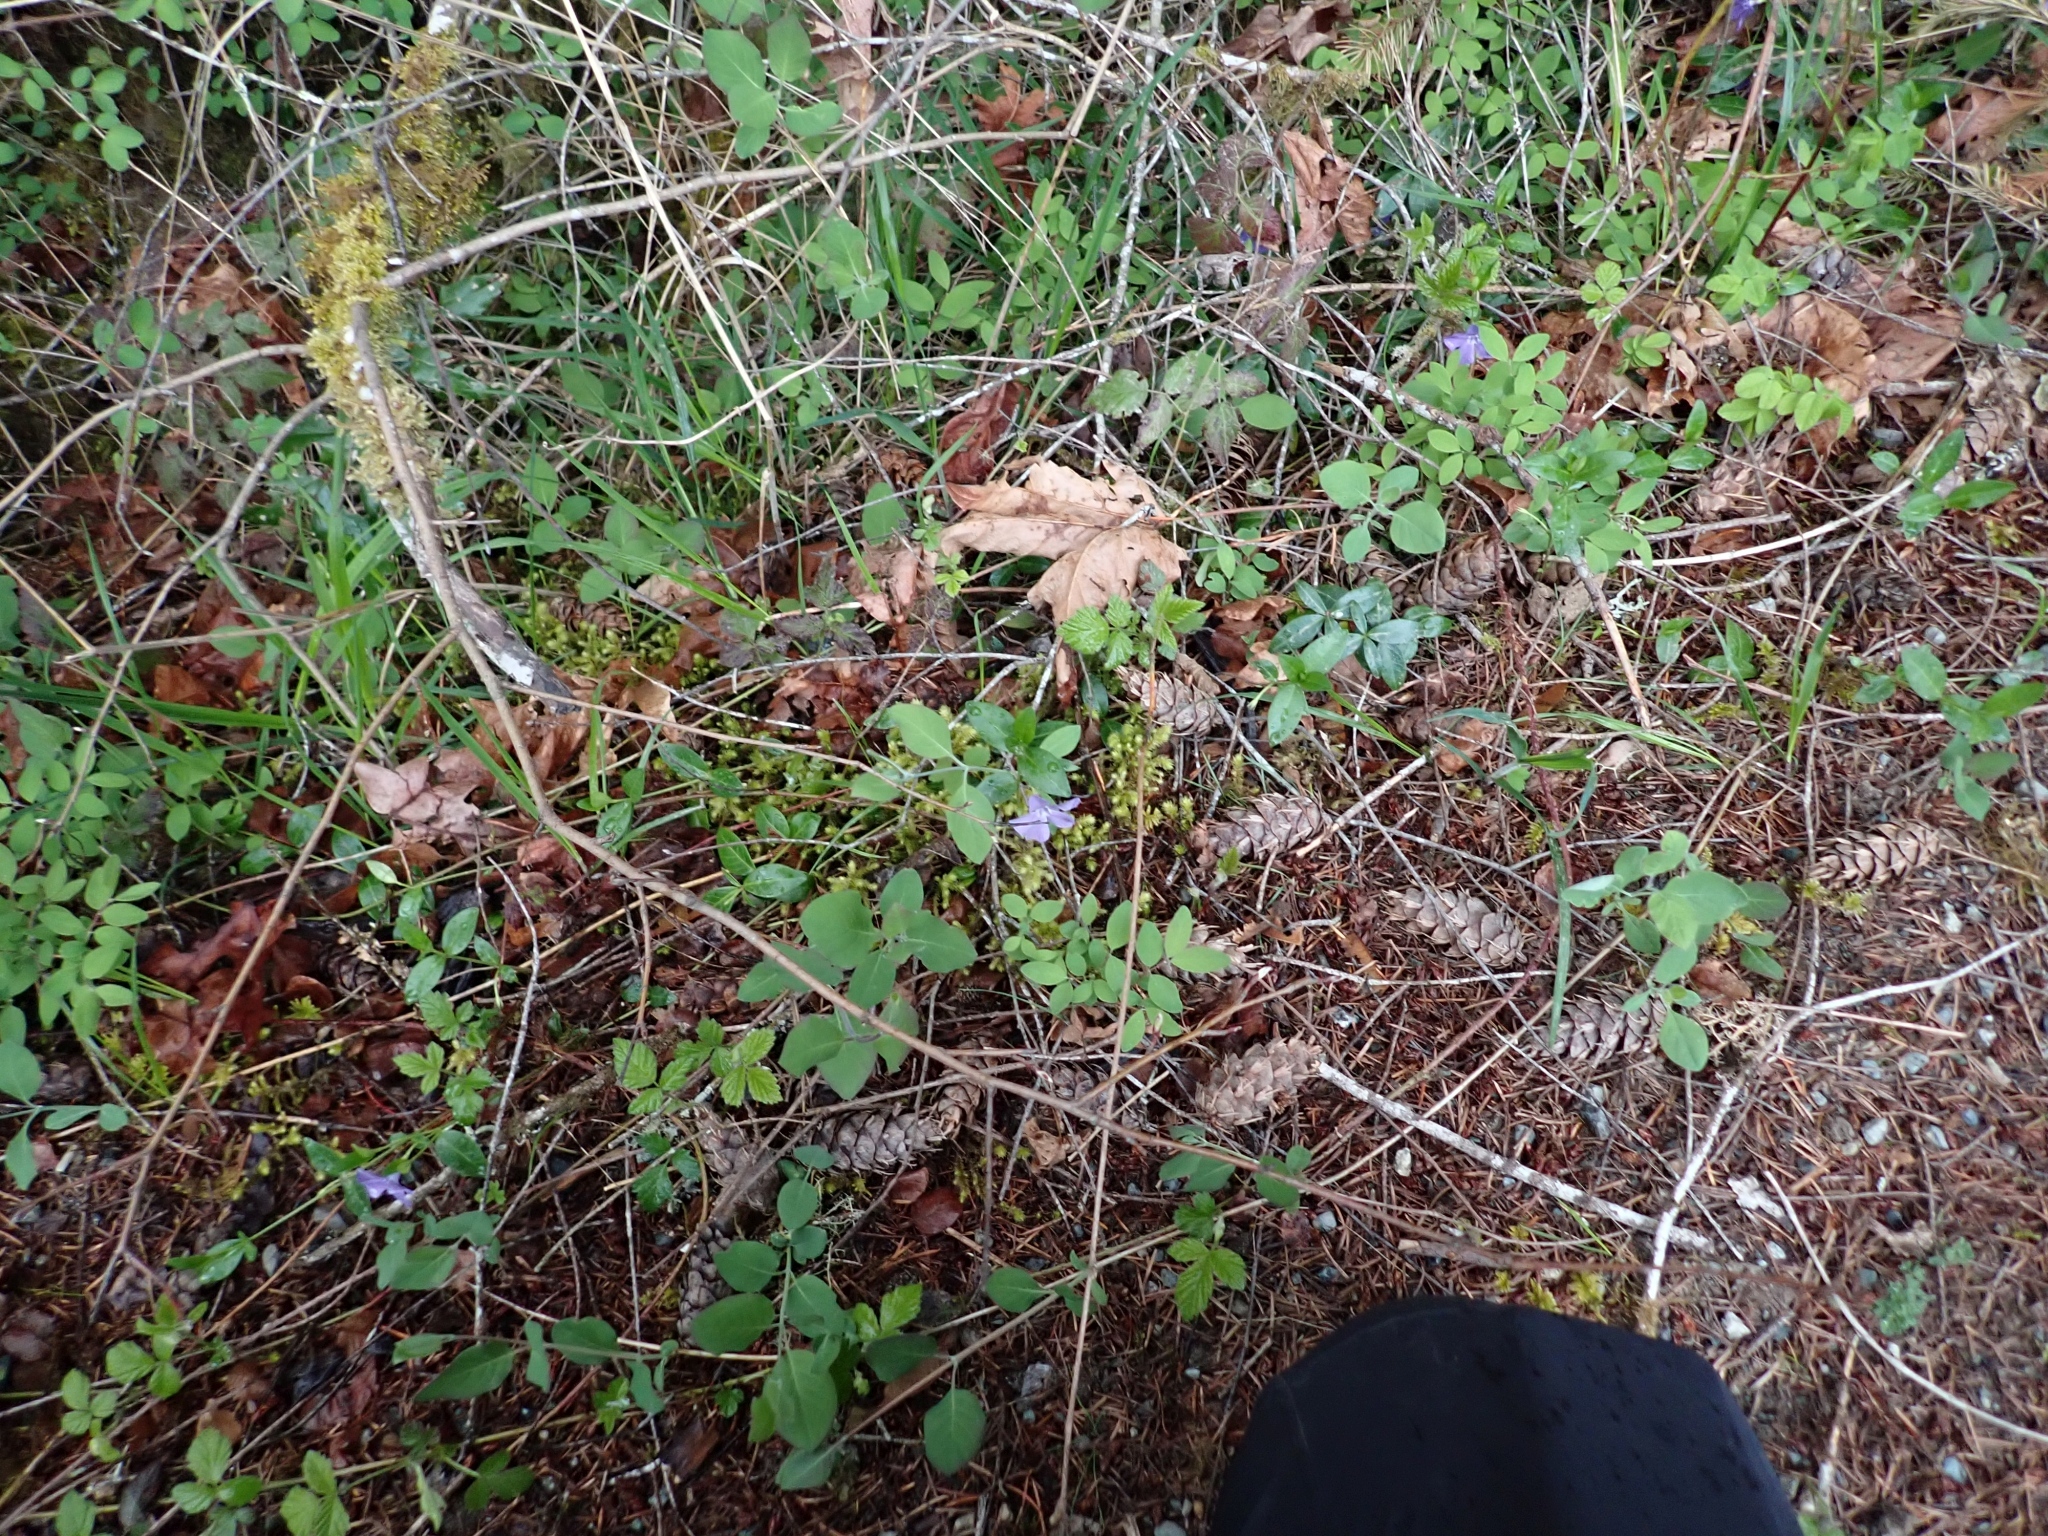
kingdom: Plantae
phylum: Tracheophyta
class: Magnoliopsida
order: Gentianales
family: Apocynaceae
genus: Vinca
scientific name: Vinca minor
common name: Lesser periwinkle
